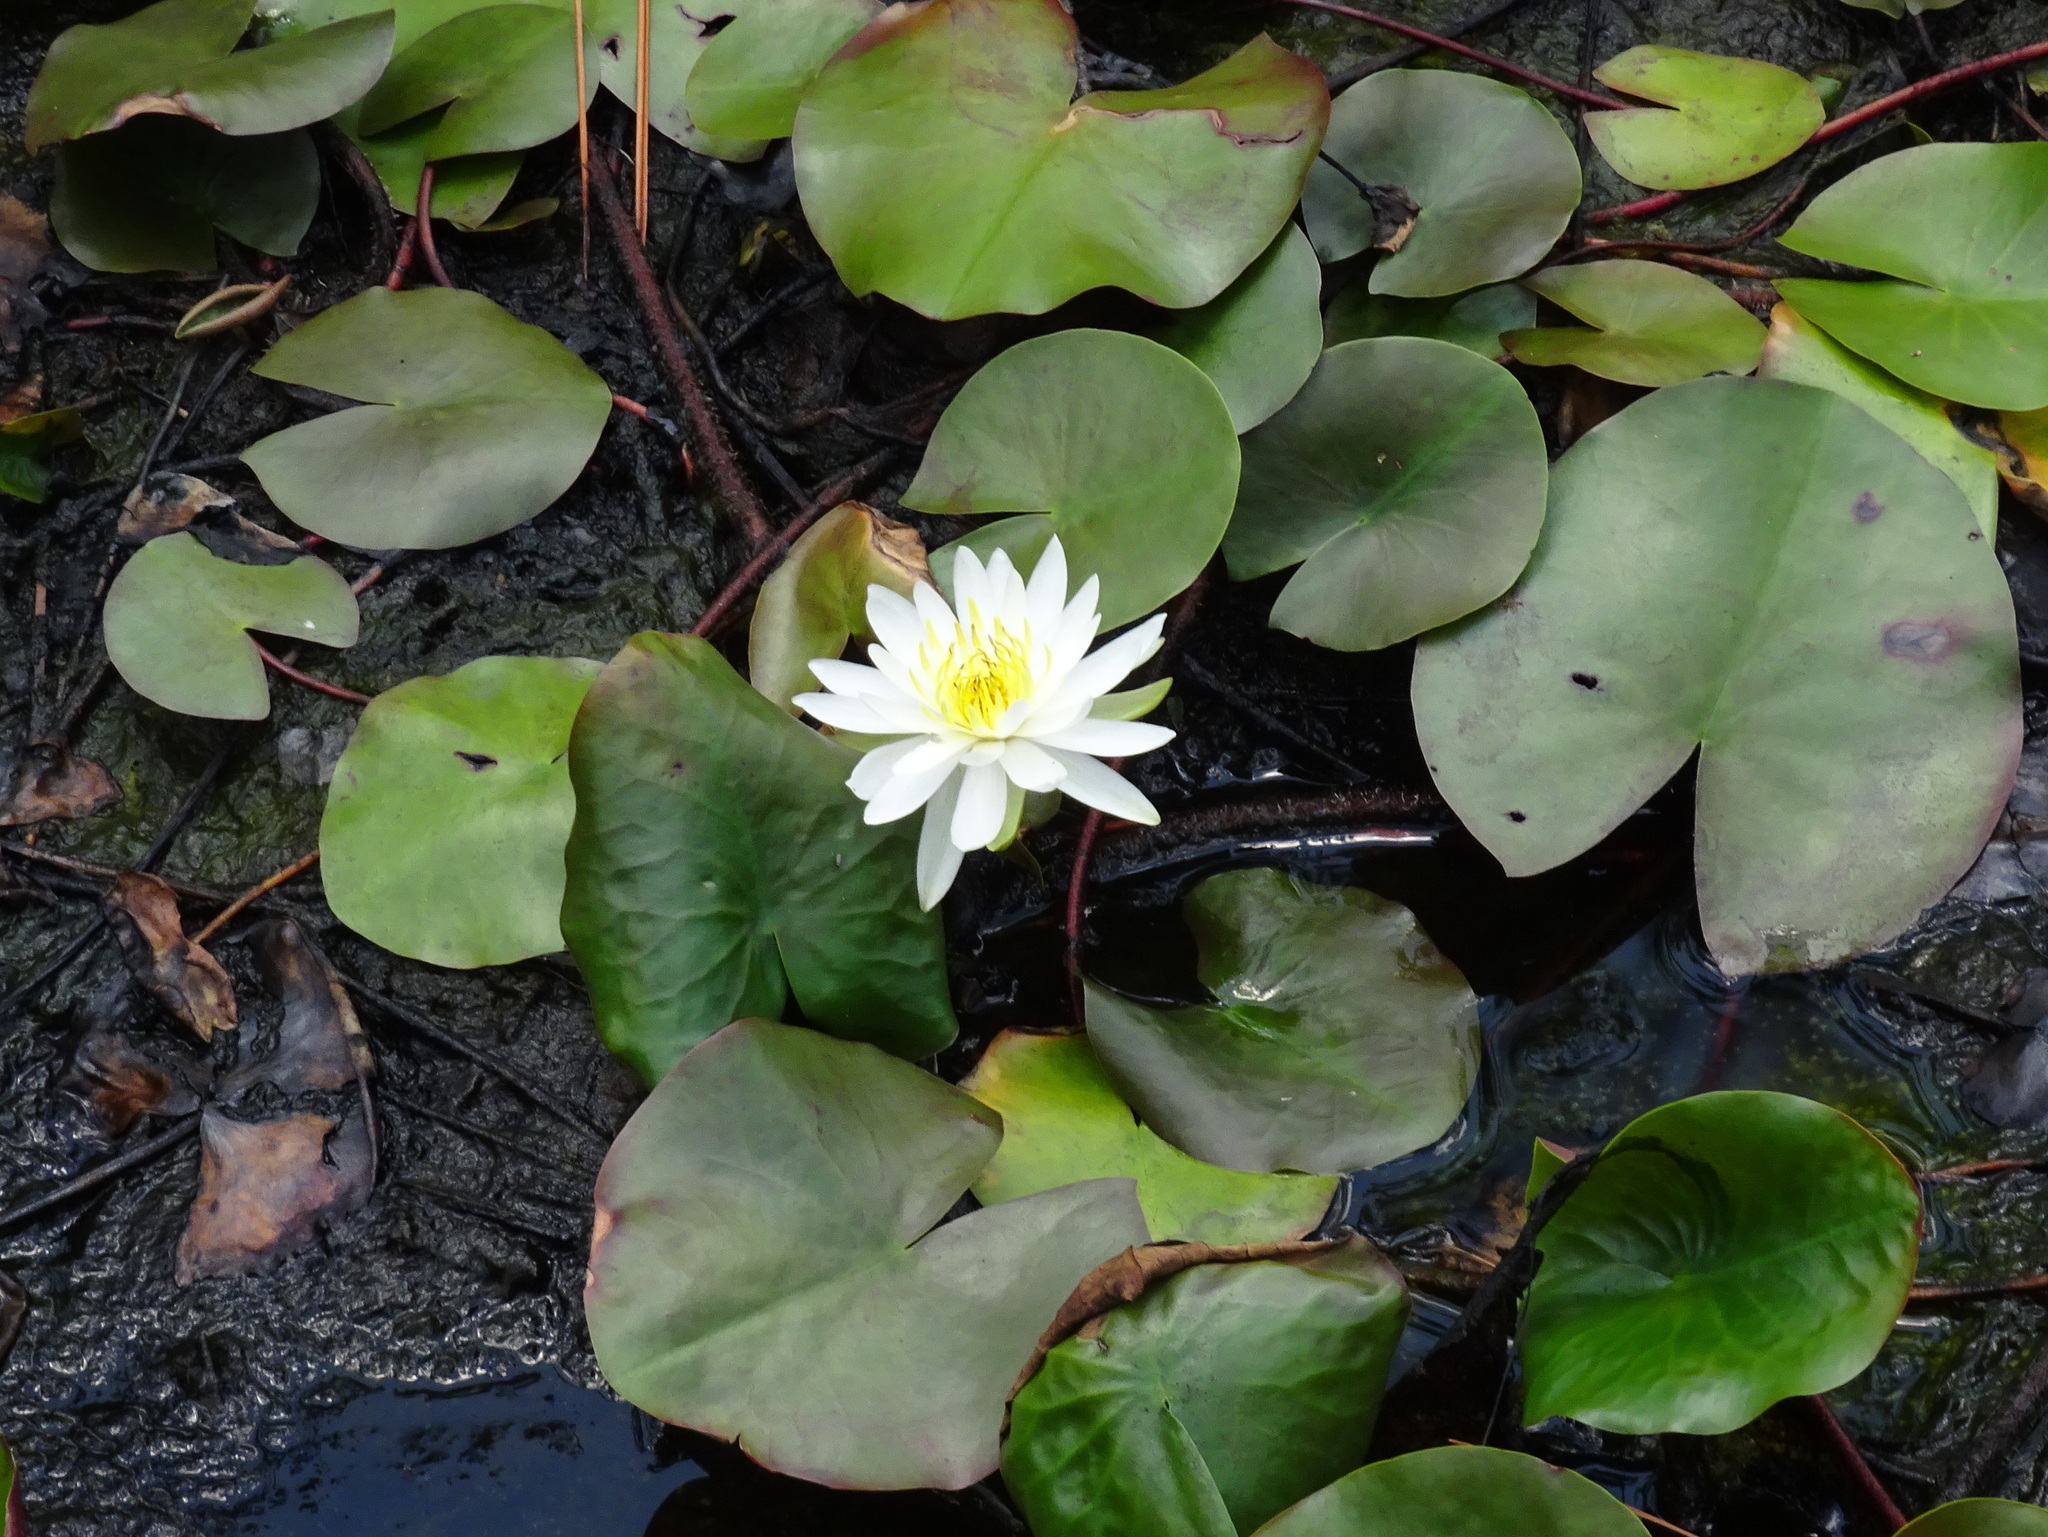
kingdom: Plantae
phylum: Tracheophyta
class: Magnoliopsida
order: Nymphaeales
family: Nymphaeaceae
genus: Nymphaea
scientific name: Nymphaea odorata
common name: Fragrant water-lily
